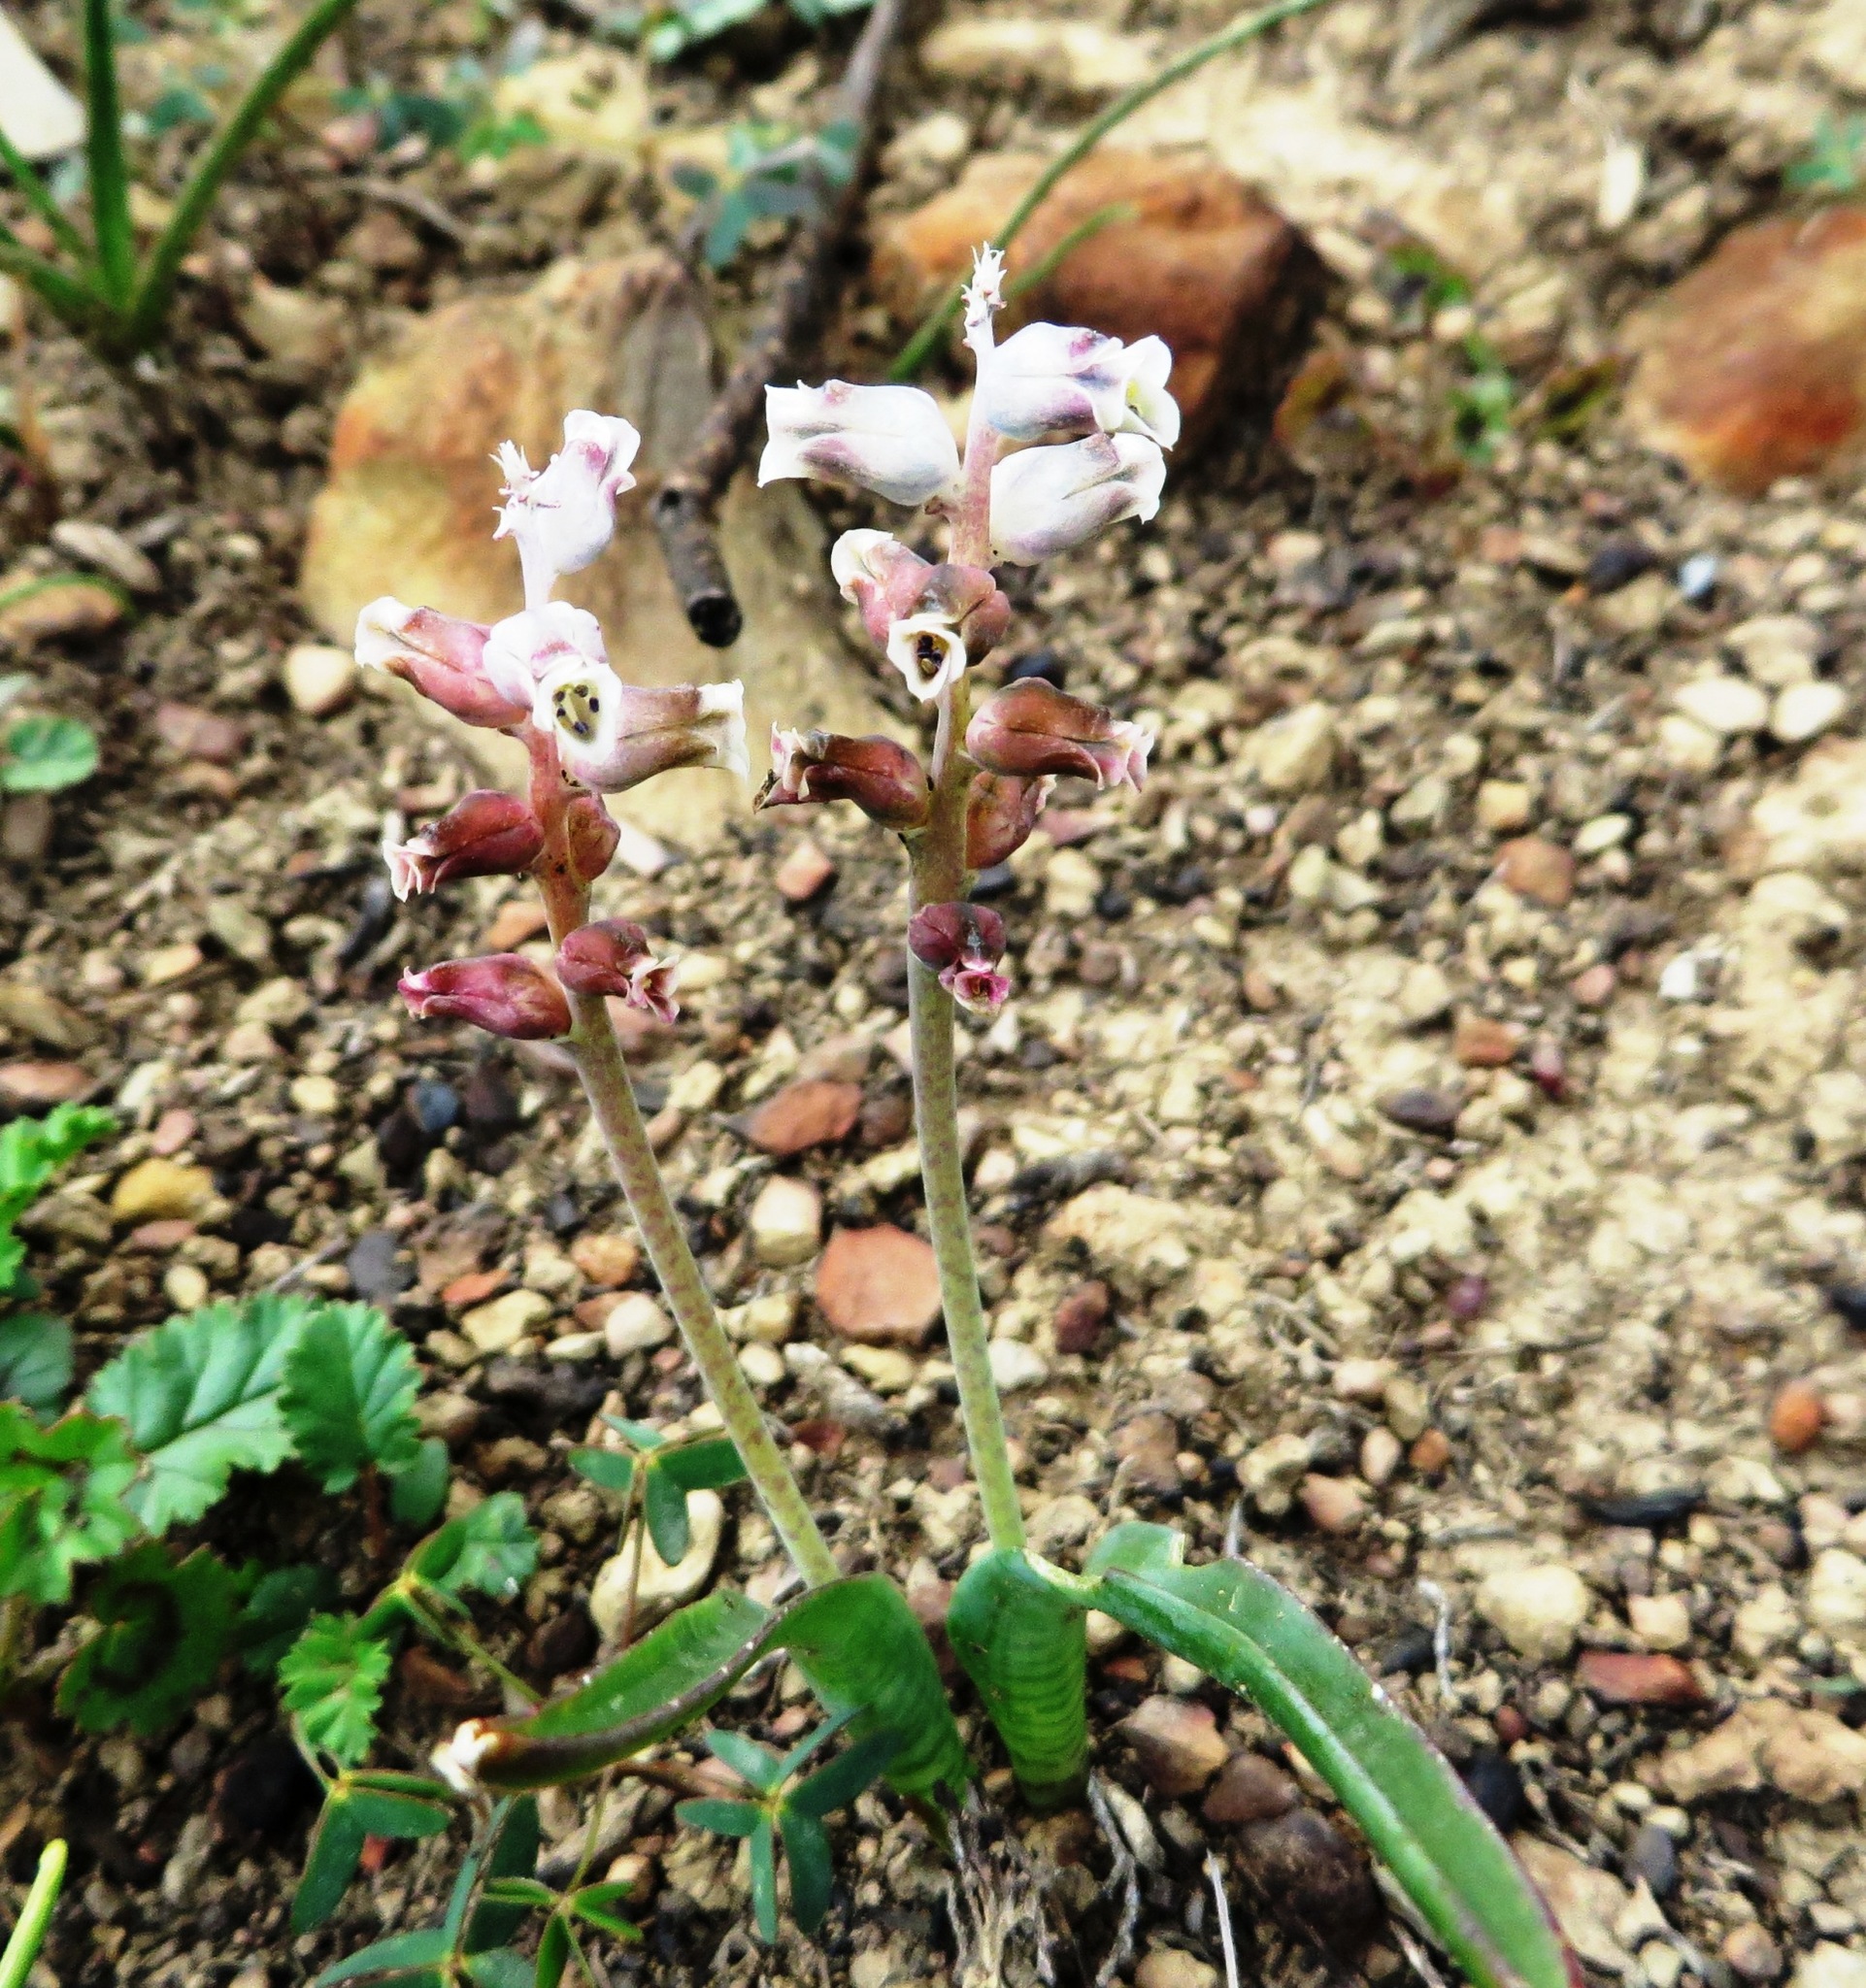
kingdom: Plantae
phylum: Tracheophyta
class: Liliopsida
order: Asparagales
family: Asparagaceae
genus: Lachenalia
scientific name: Lachenalia canaliculata
